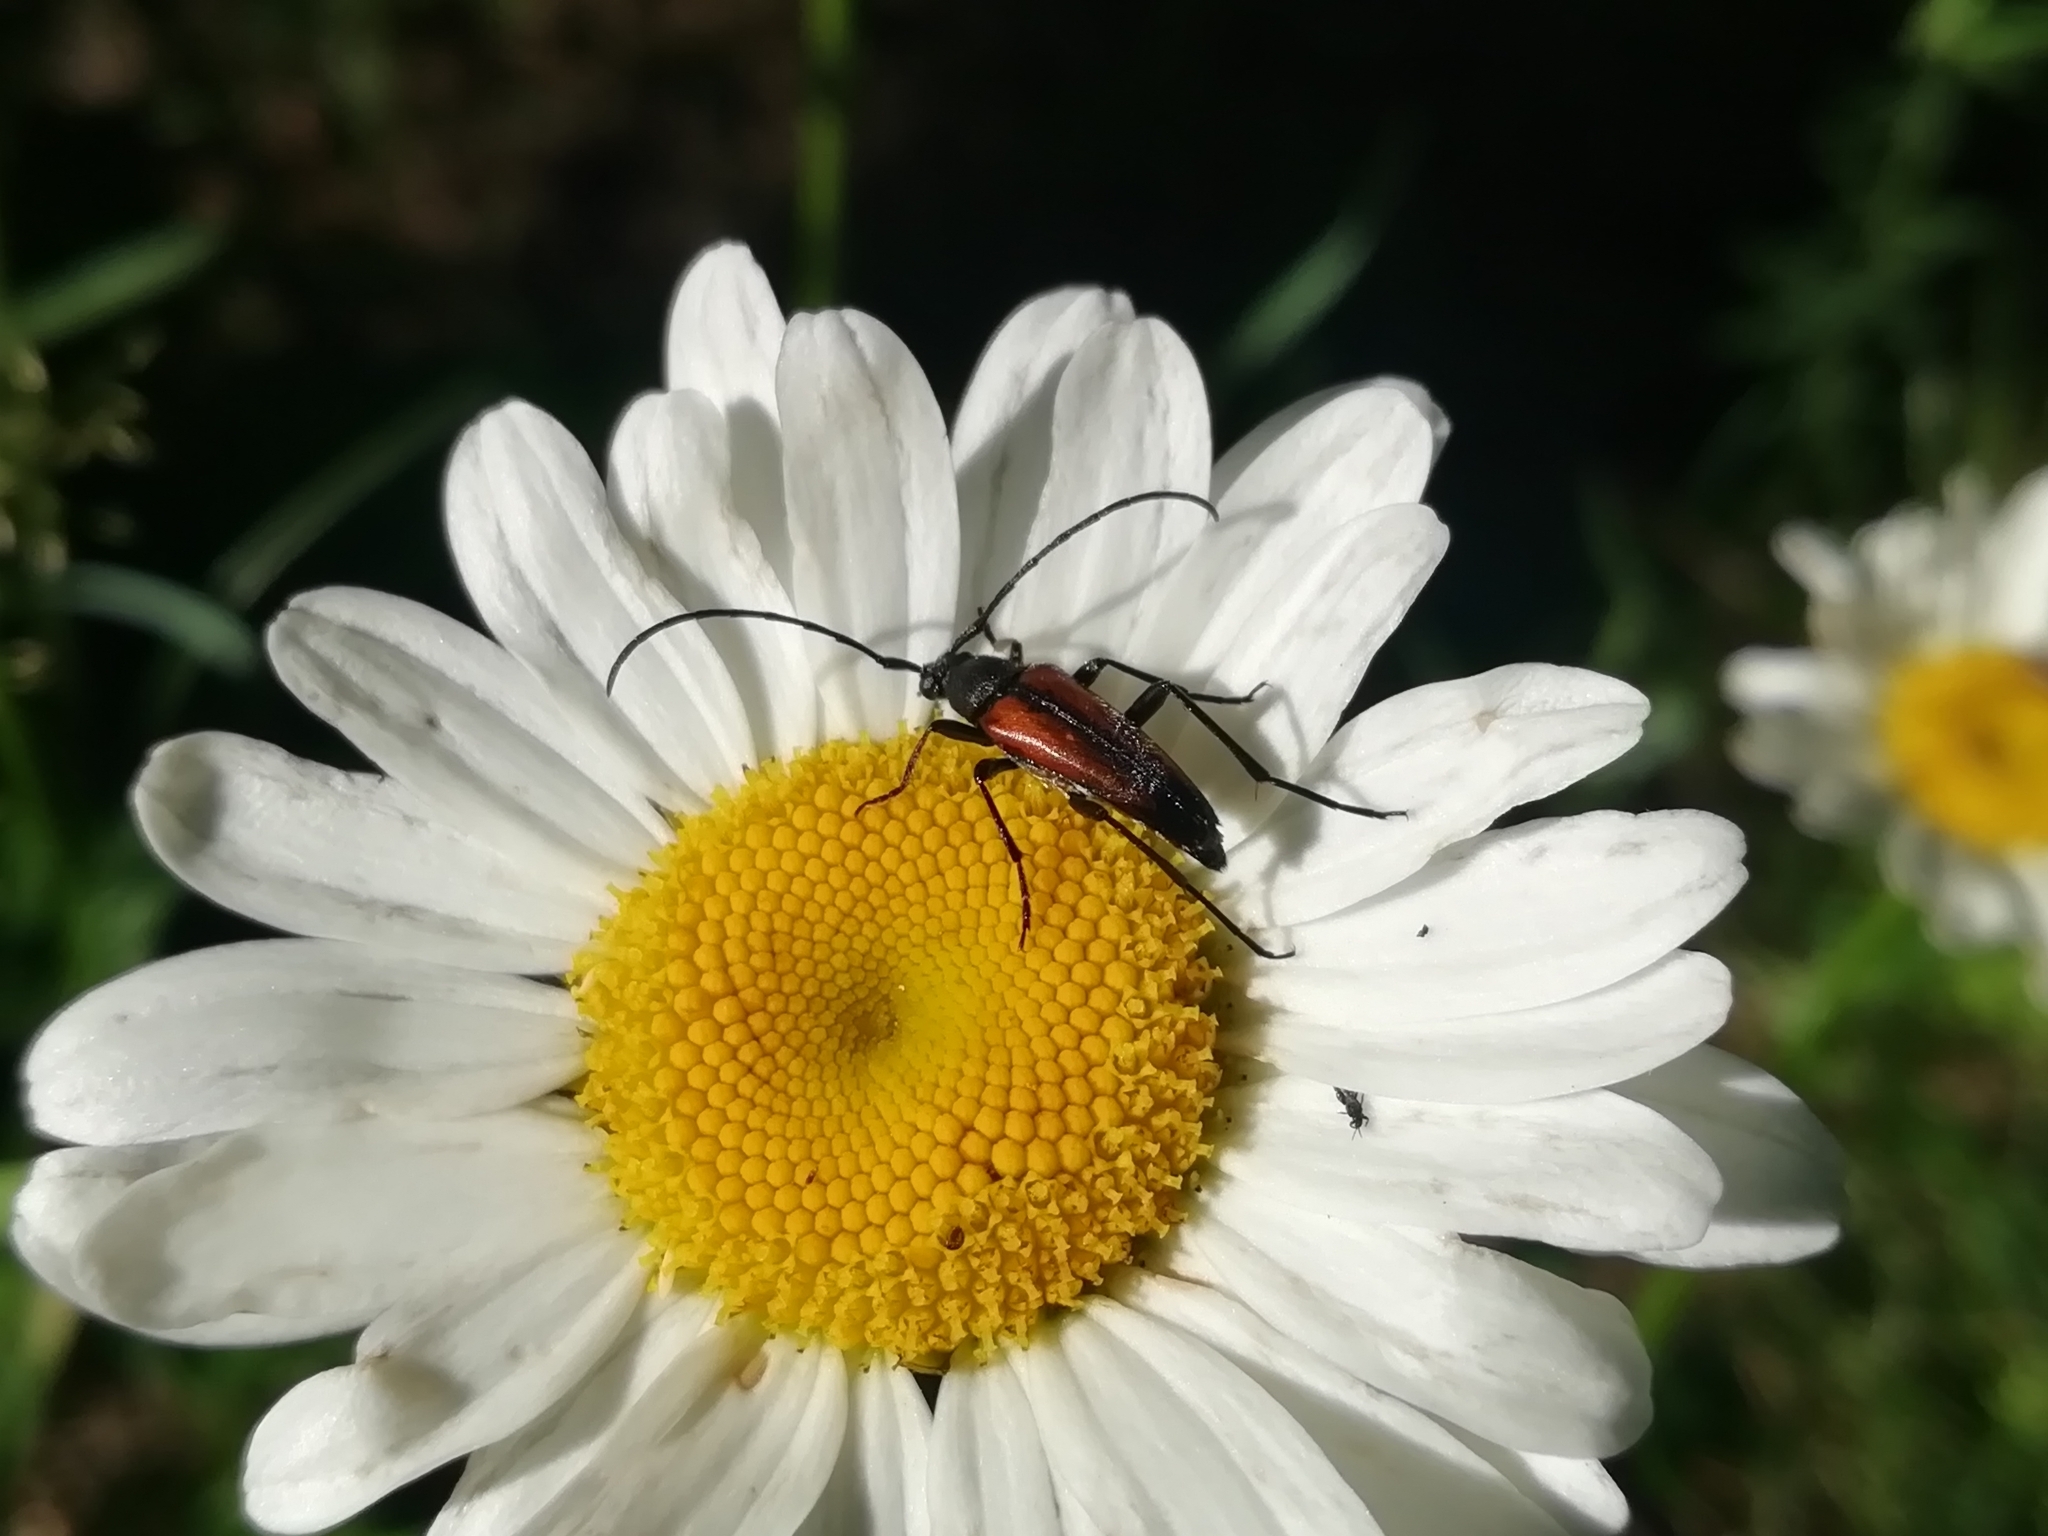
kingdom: Animalia
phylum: Arthropoda
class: Insecta
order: Coleoptera
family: Cerambycidae
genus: Stenurella
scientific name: Stenurella melanura
